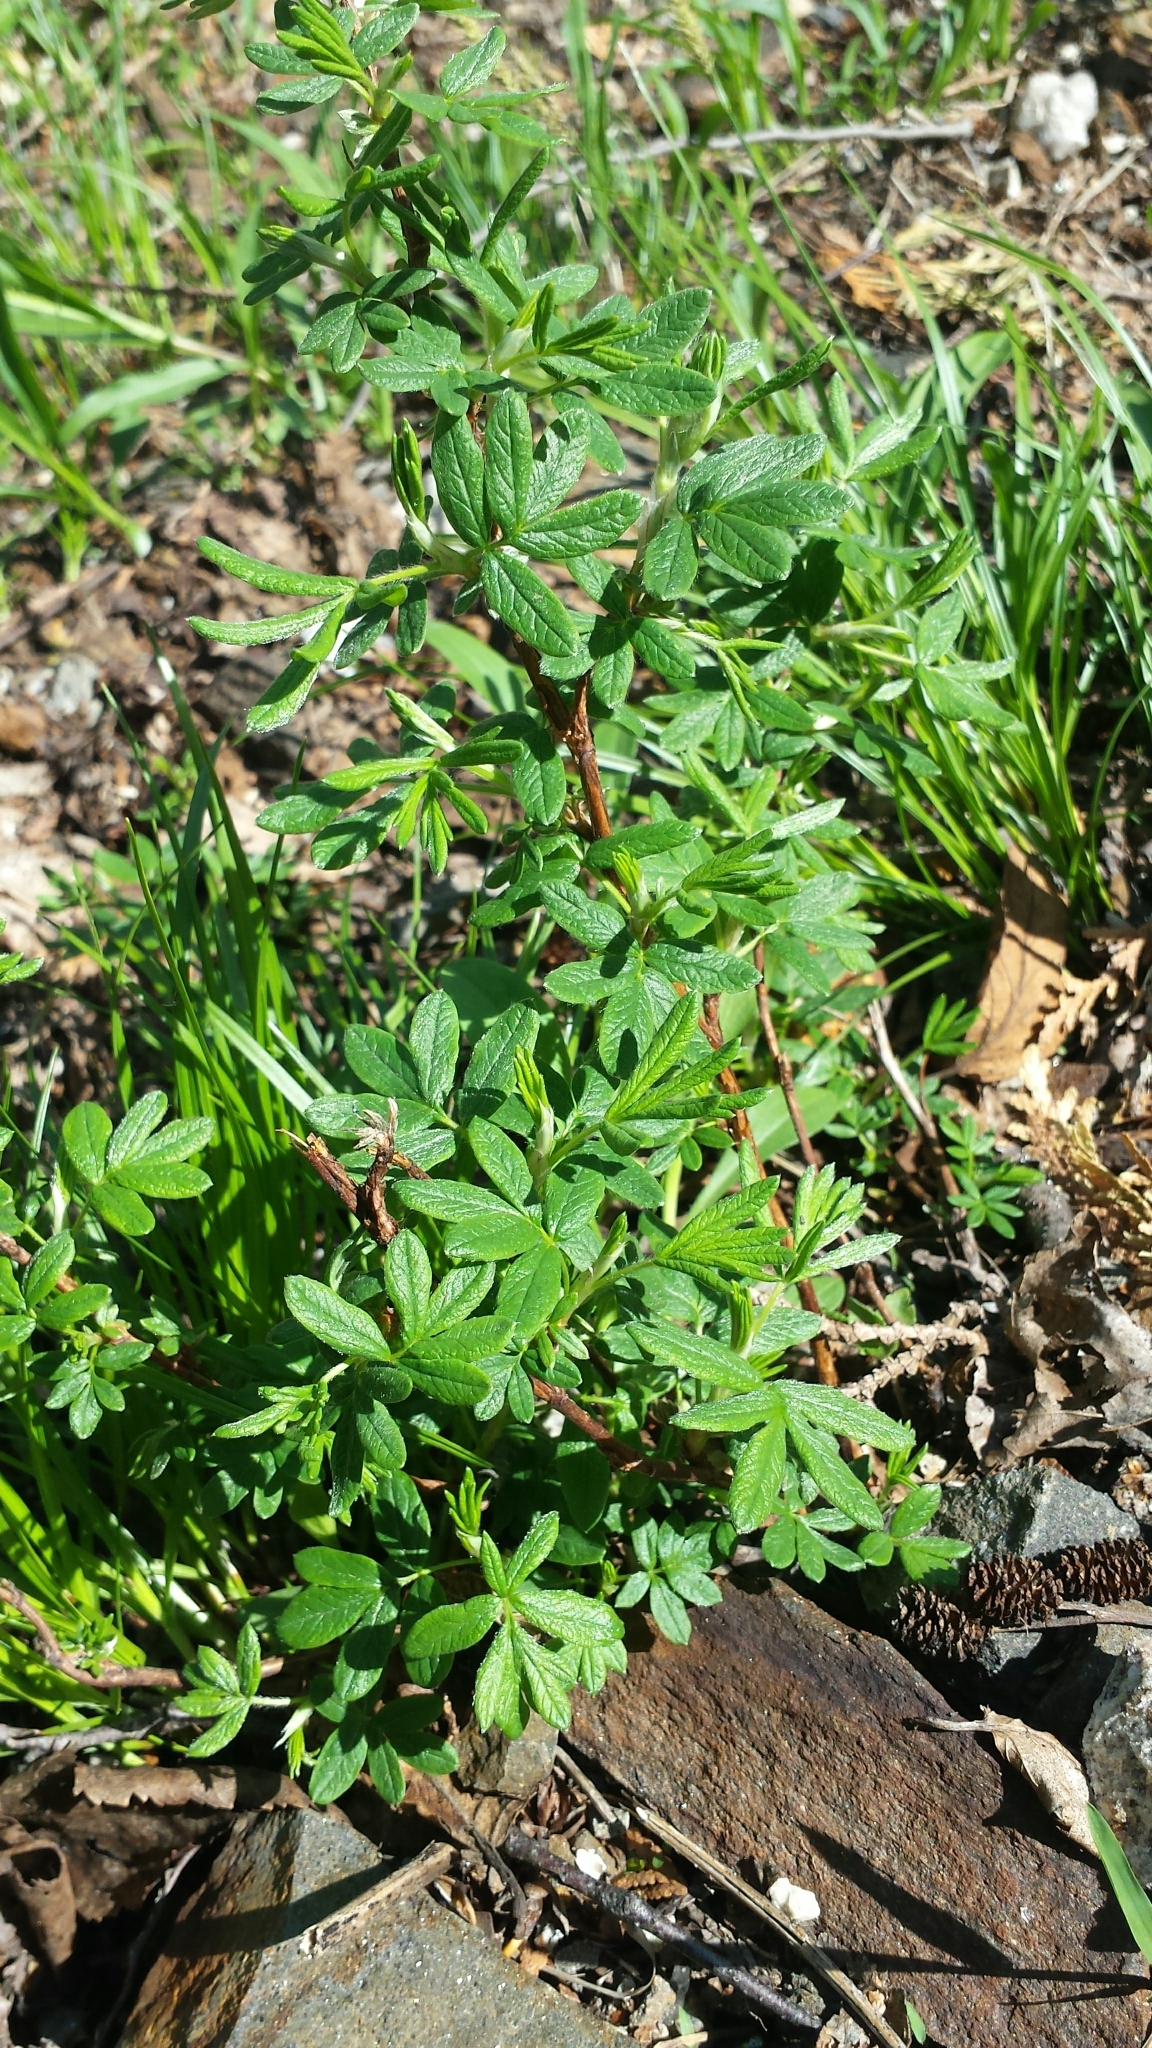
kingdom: Plantae
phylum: Tracheophyta
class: Magnoliopsida
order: Rosales
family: Rosaceae
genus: Dasiphora
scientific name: Dasiphora fruticosa
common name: Shrubby cinquefoil
